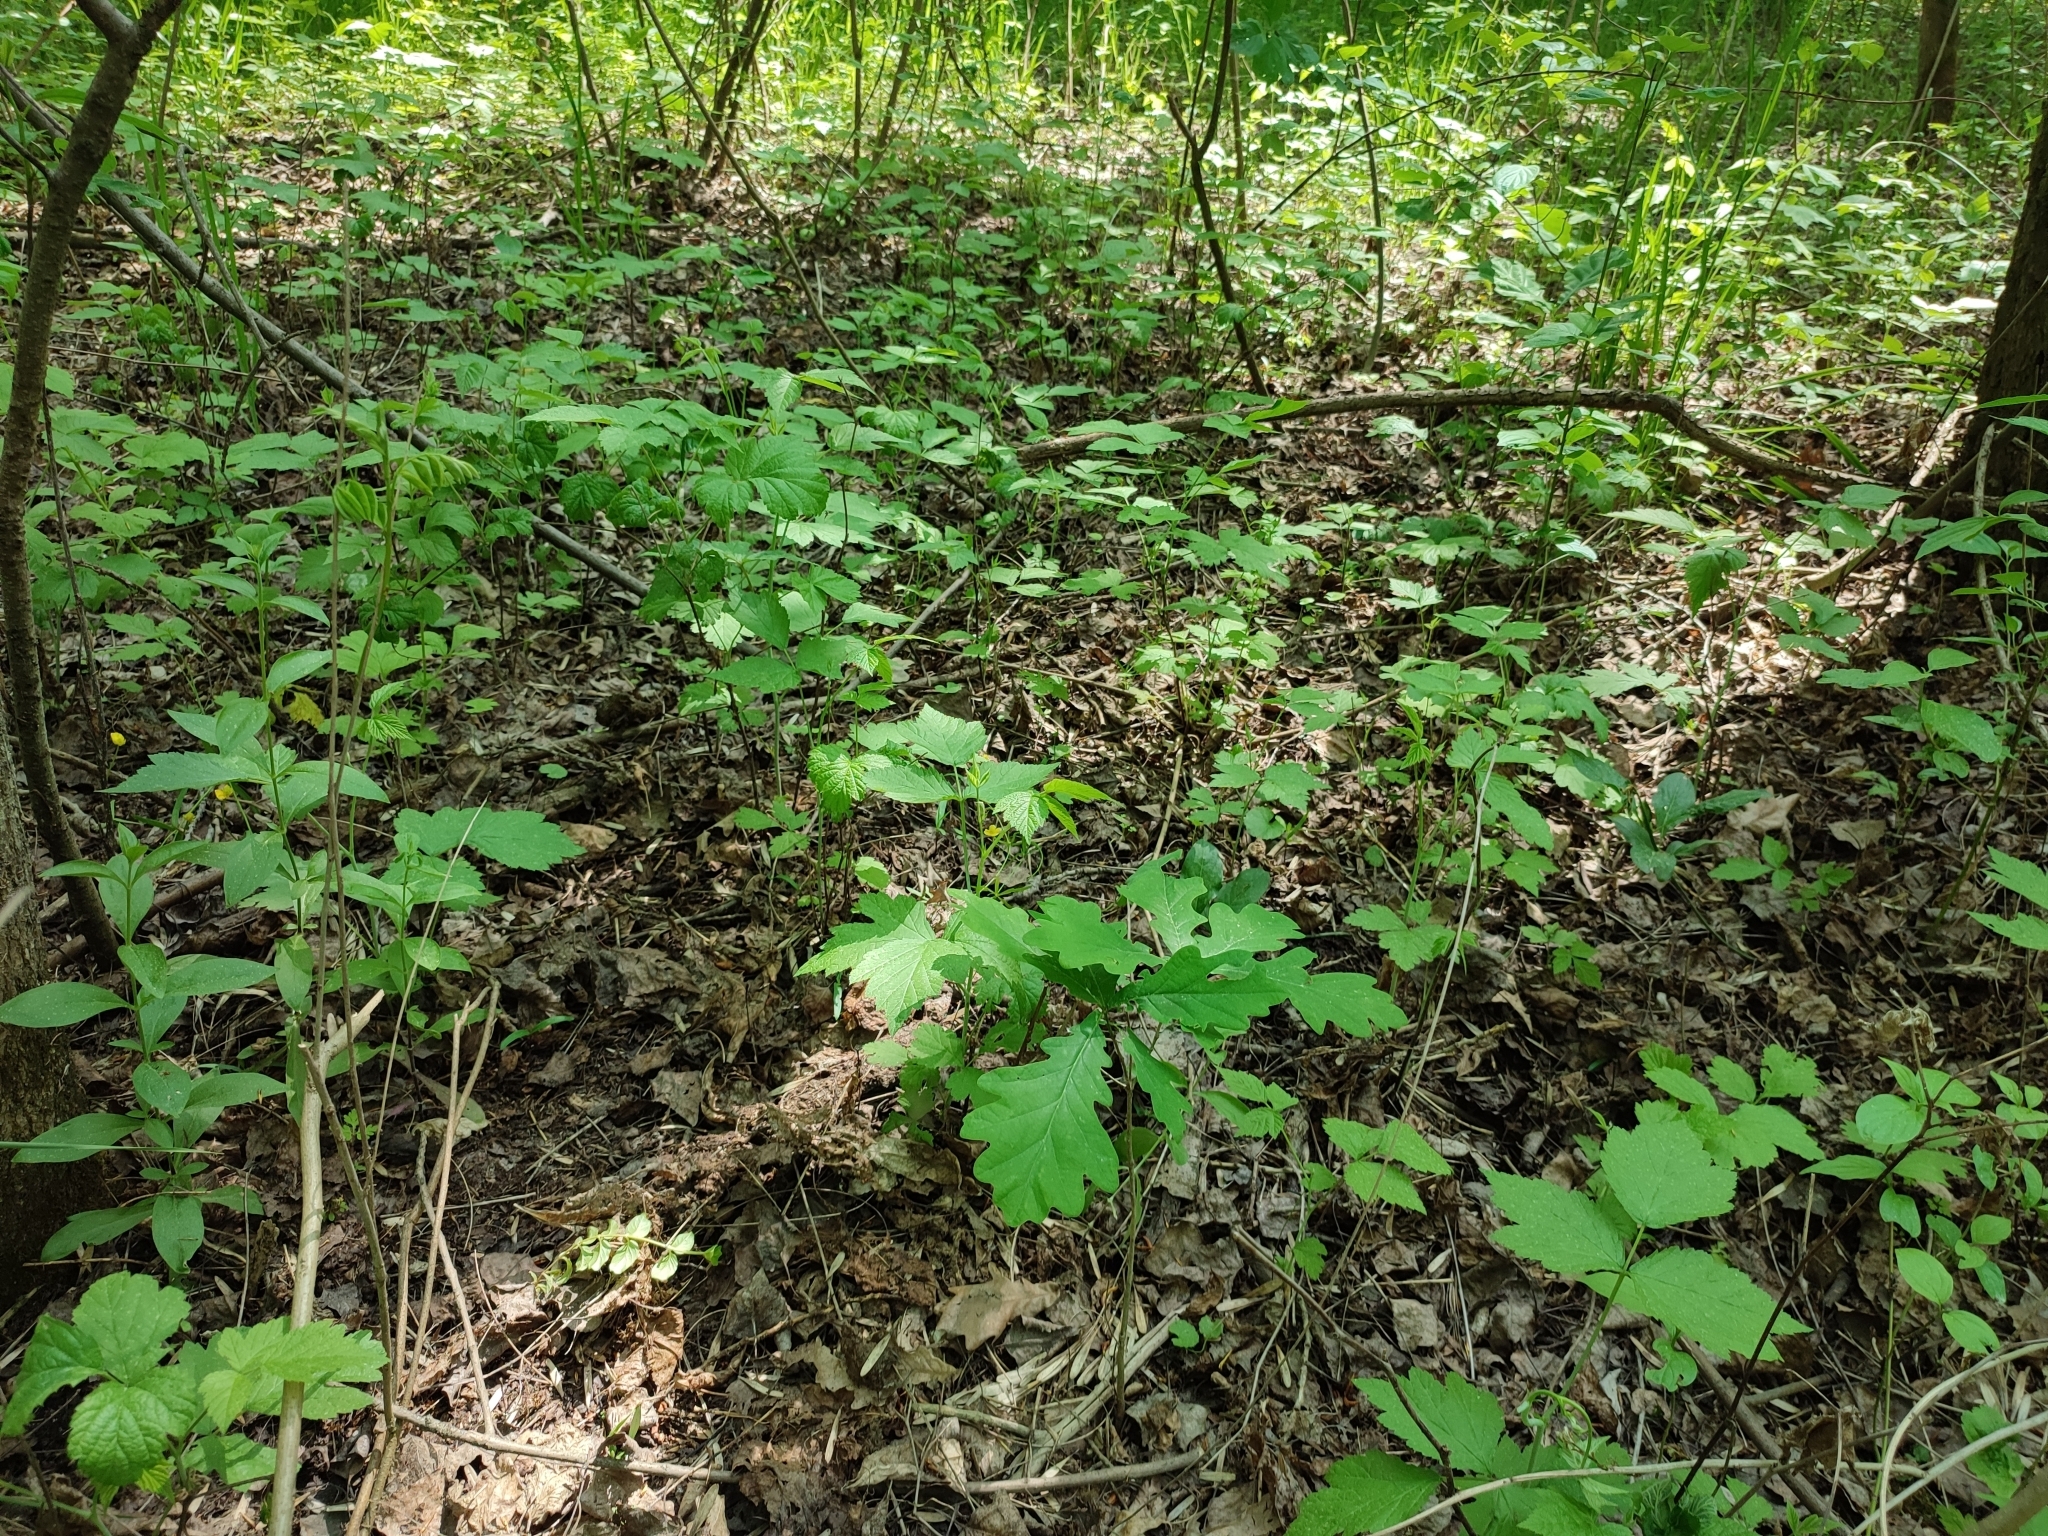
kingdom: Plantae
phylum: Tracheophyta
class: Magnoliopsida
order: Fagales
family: Fagaceae
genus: Quercus
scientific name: Quercus robur
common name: Pedunculate oak
